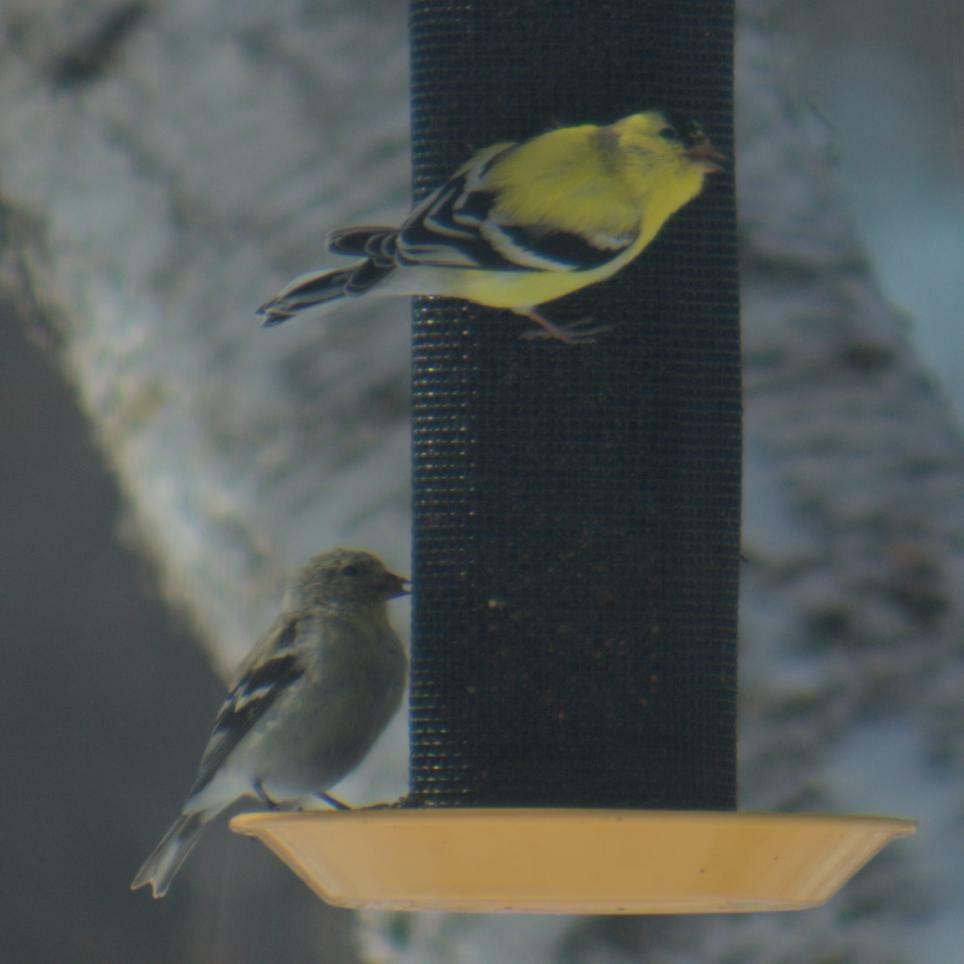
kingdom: Animalia
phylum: Chordata
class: Aves
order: Passeriformes
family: Fringillidae
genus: Spinus
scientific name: Spinus tristis
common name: American goldfinch
